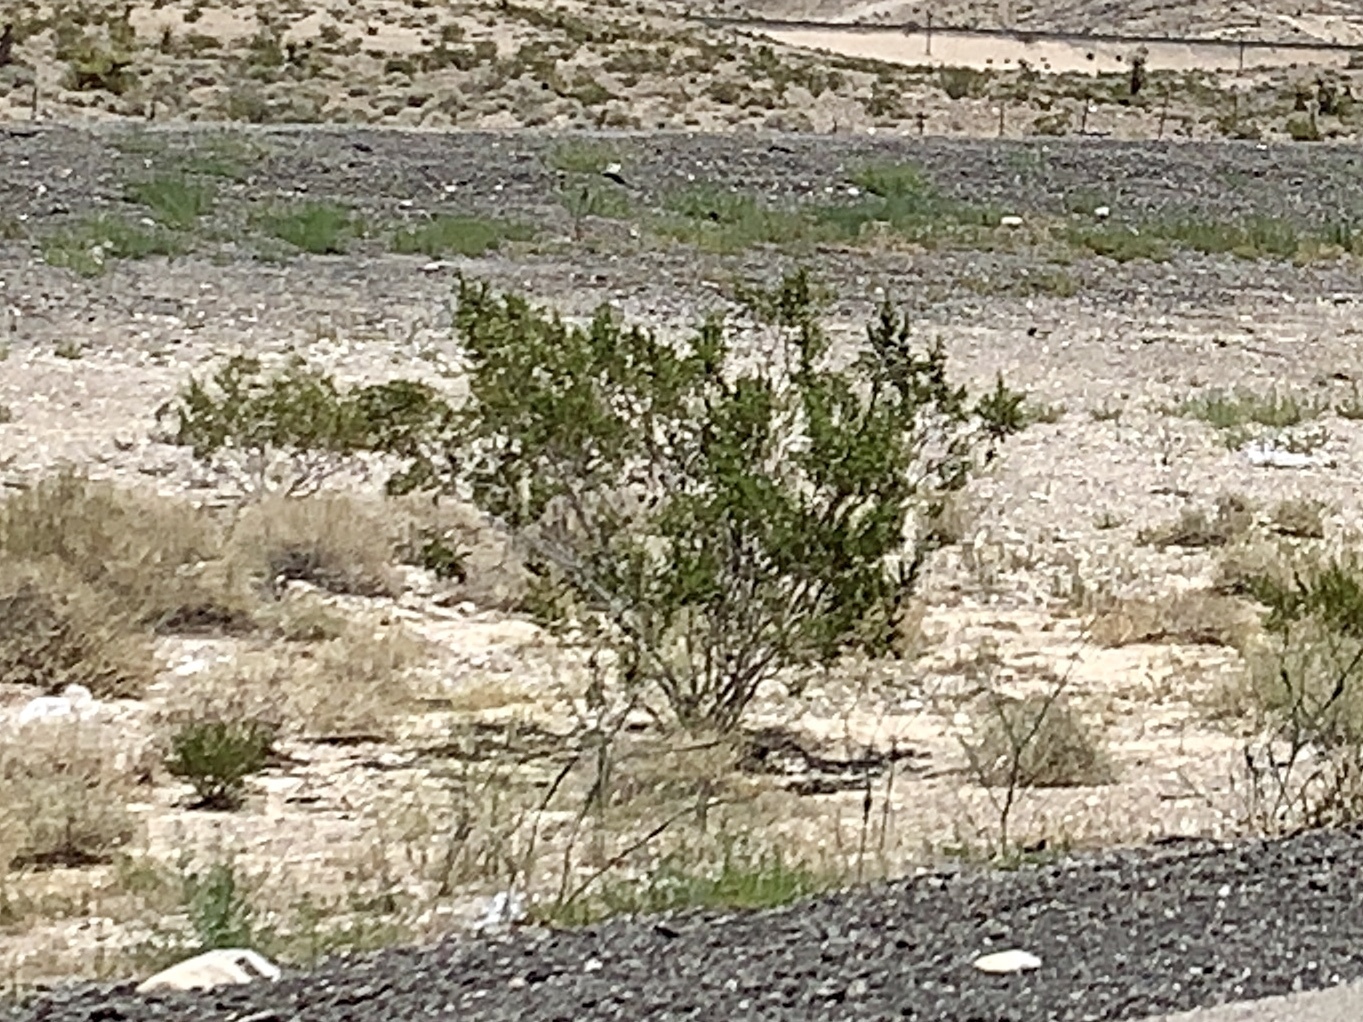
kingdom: Plantae
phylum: Tracheophyta
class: Magnoliopsida
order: Zygophyllales
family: Zygophyllaceae
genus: Larrea
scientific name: Larrea tridentata
